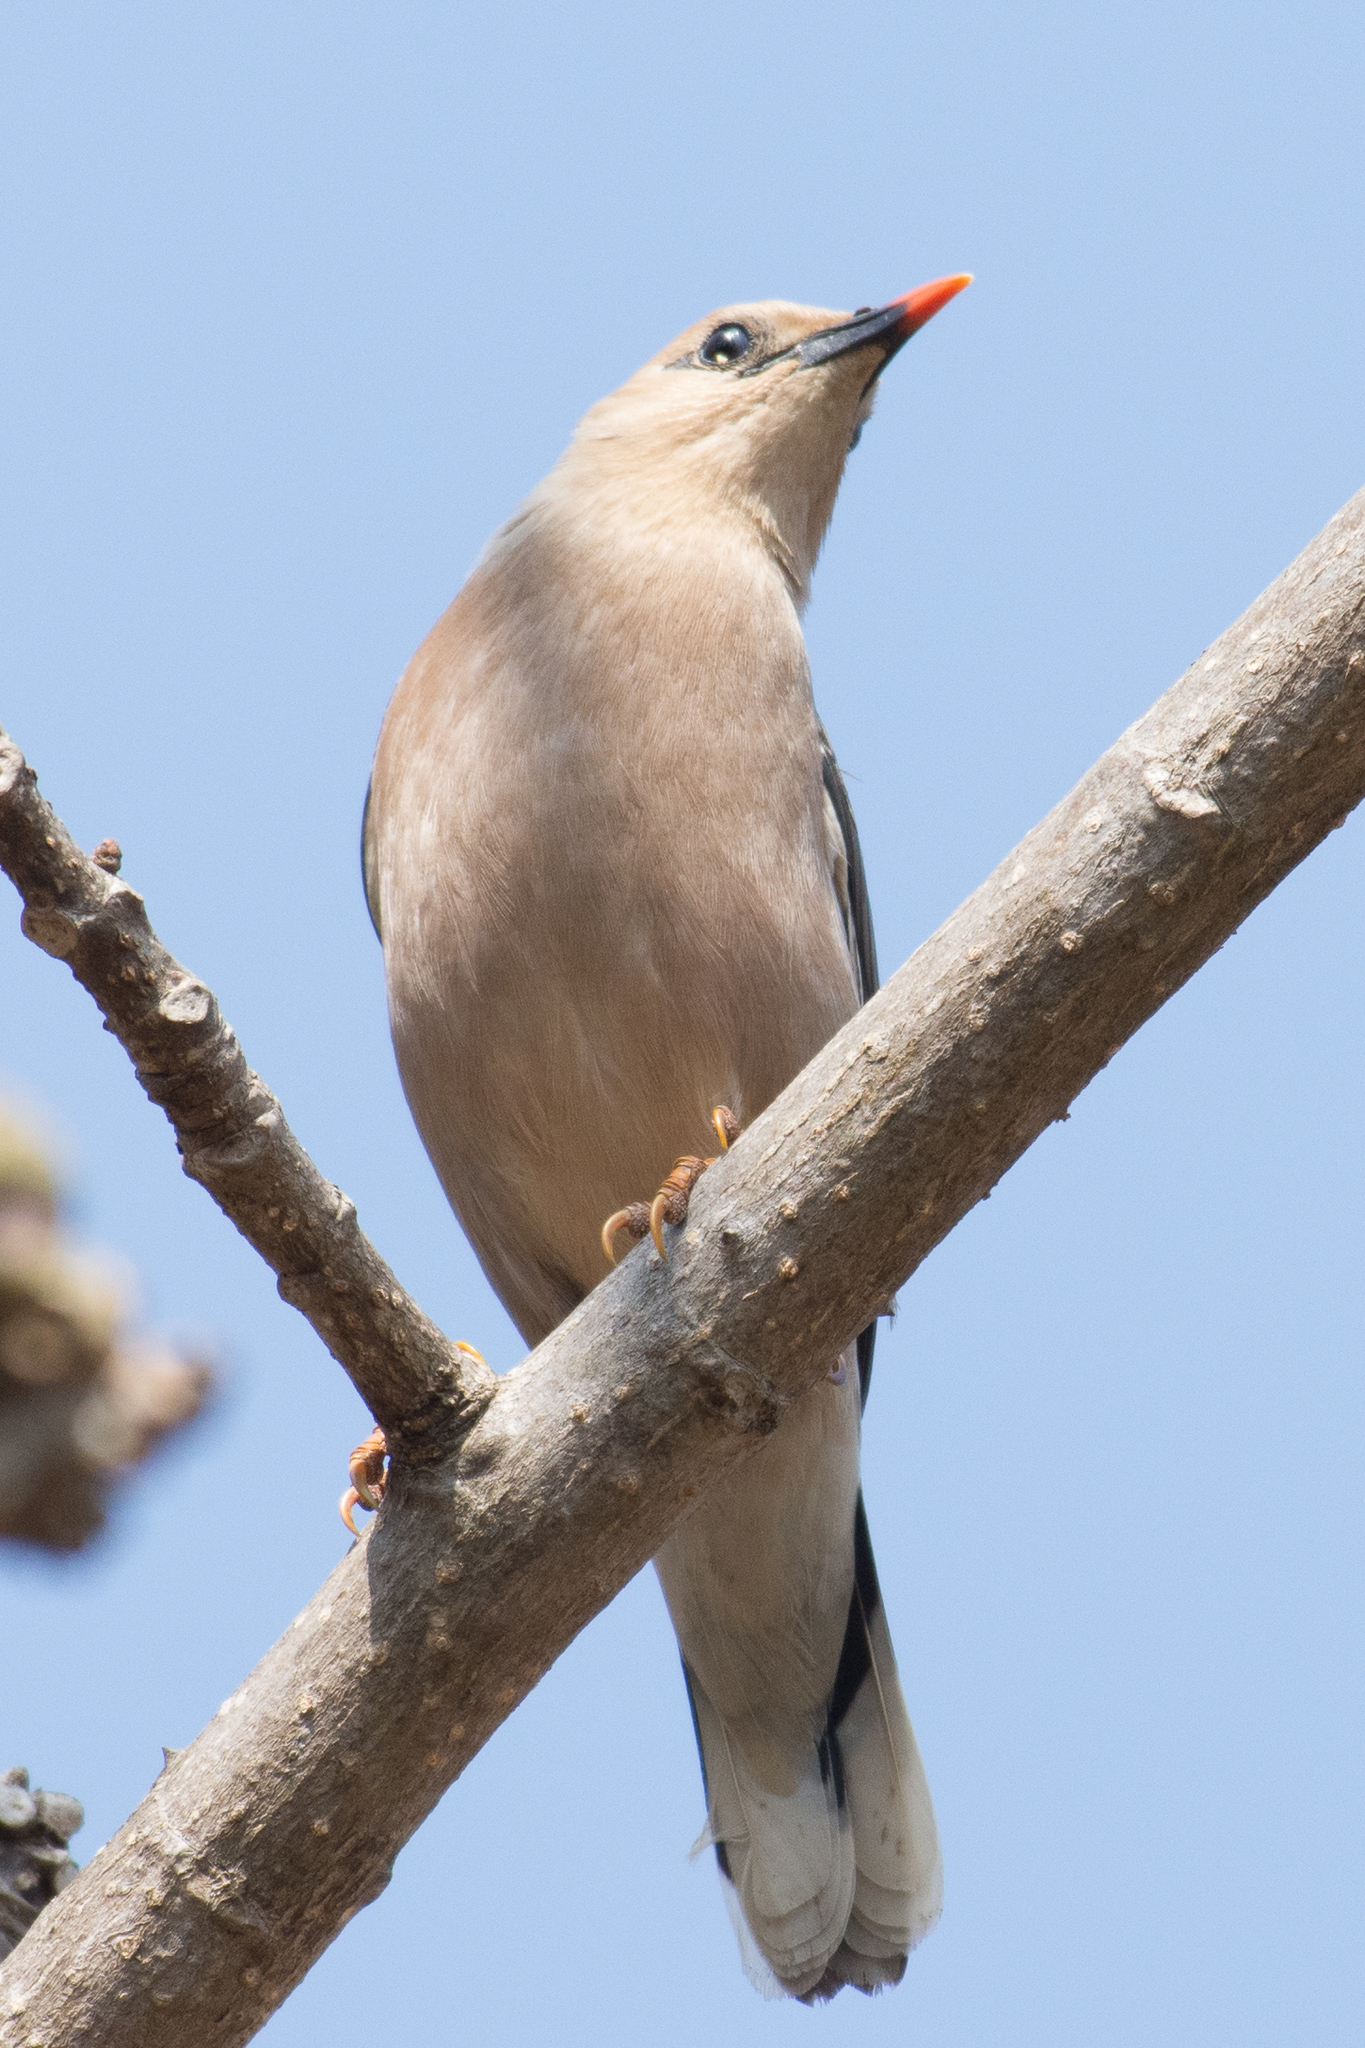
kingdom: Animalia
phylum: Chordata
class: Aves
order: Passeriformes
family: Sturnidae
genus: Acridotheres
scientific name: Acridotheres burmannicus
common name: Vinous-breasted starling
